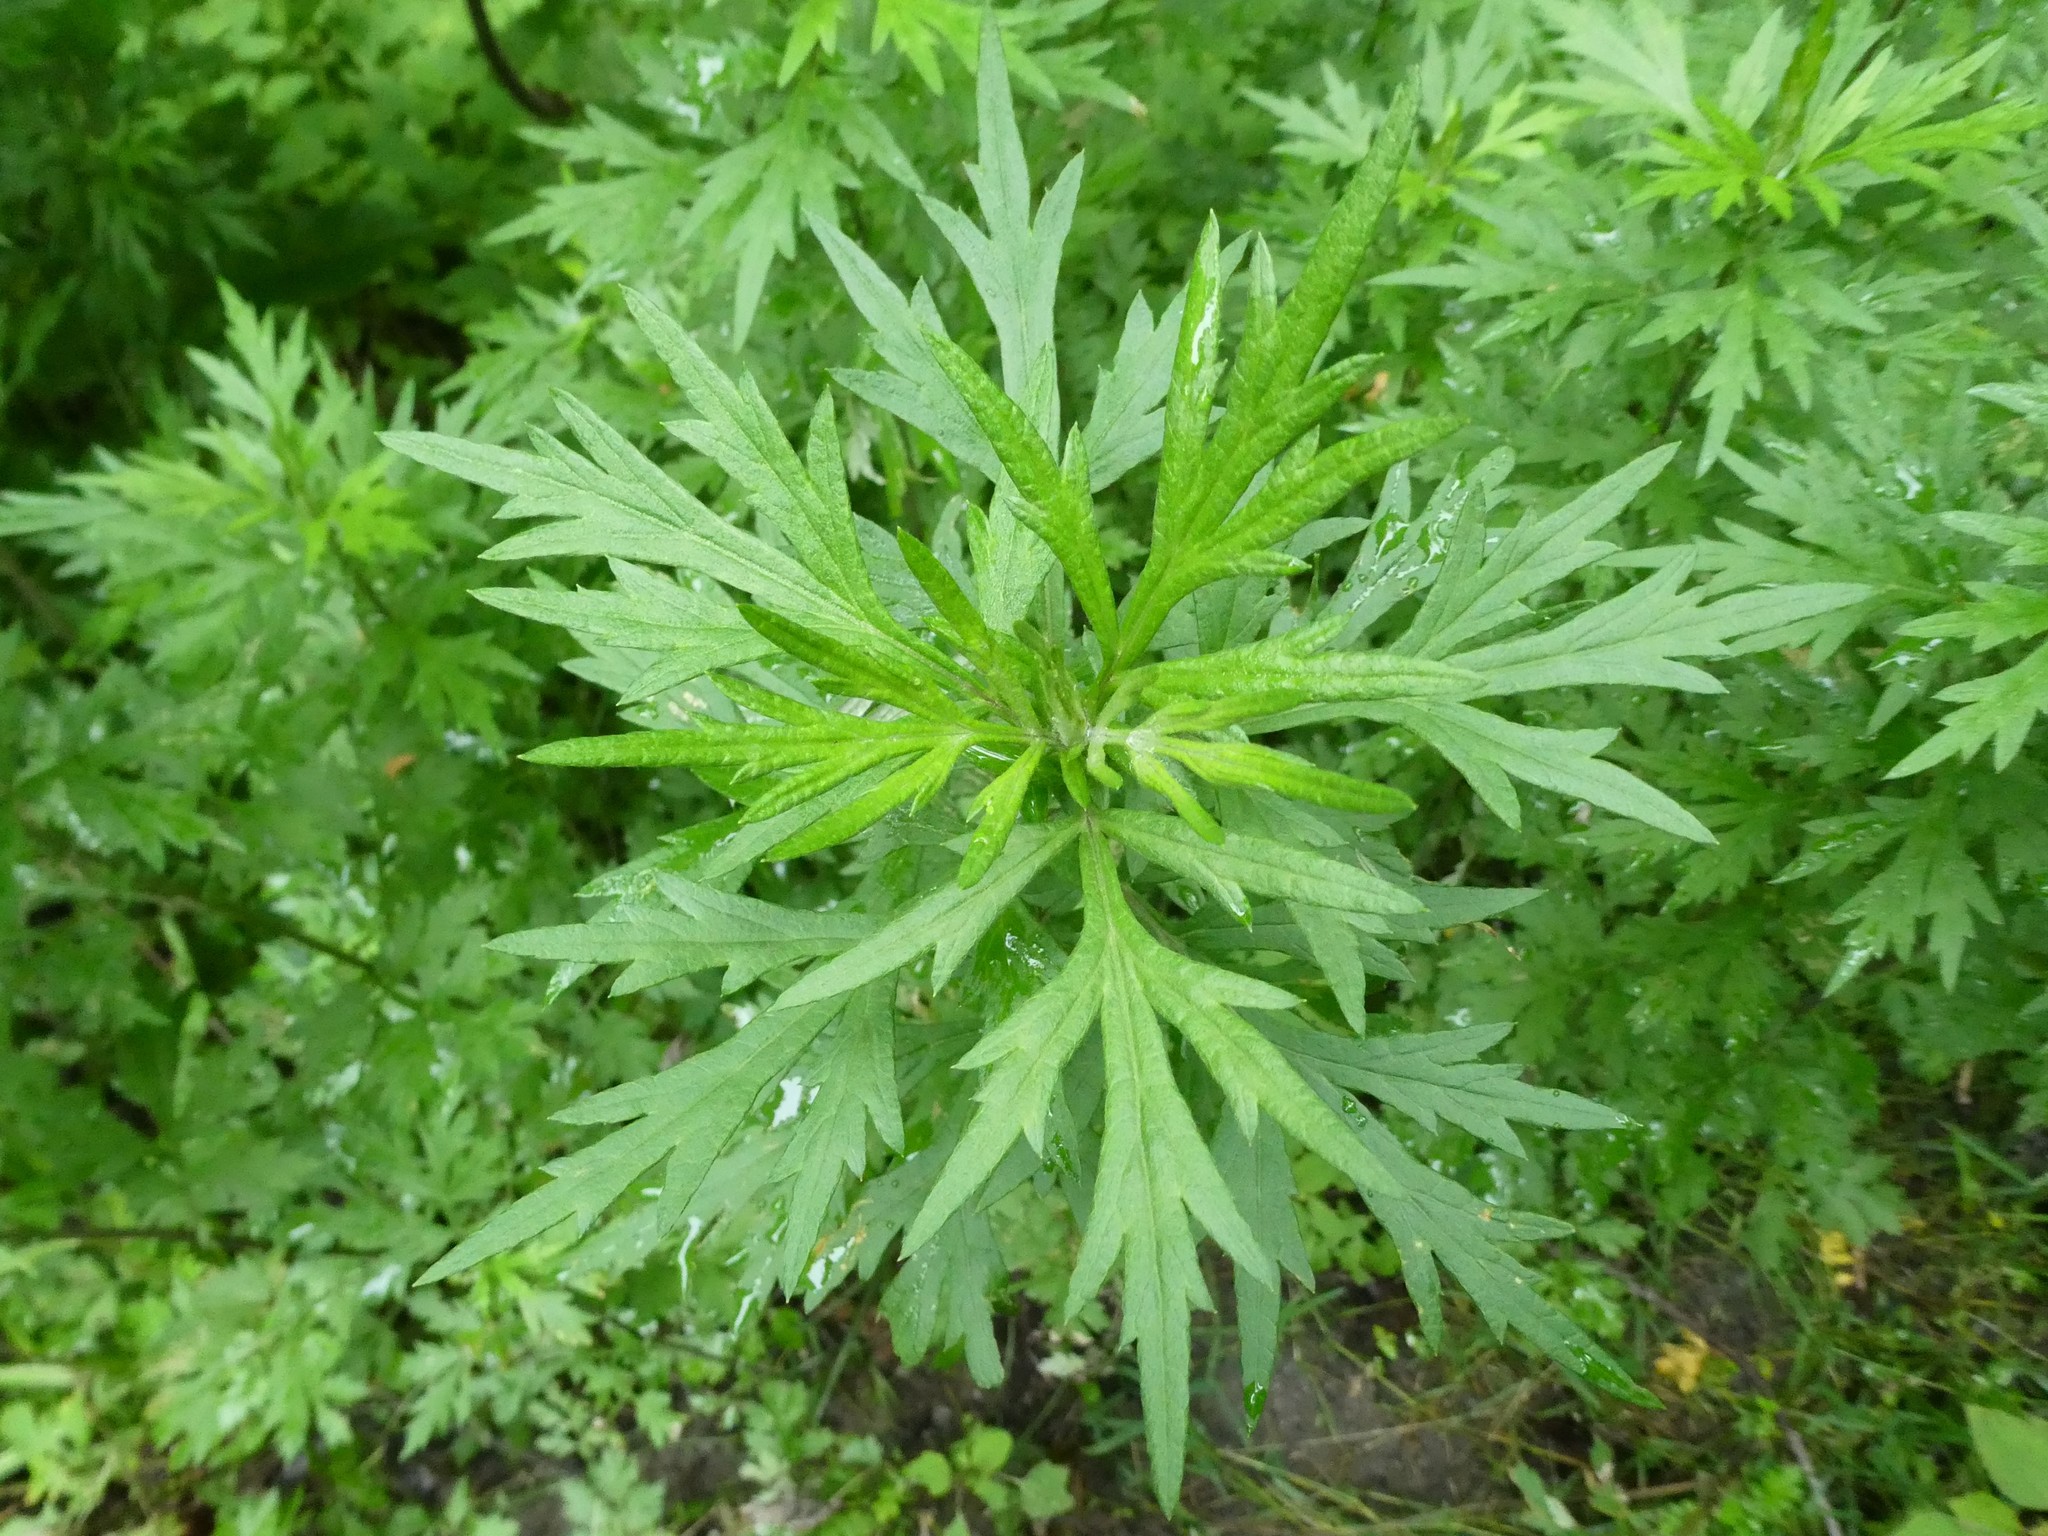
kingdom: Plantae
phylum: Tracheophyta
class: Magnoliopsida
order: Asterales
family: Asteraceae
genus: Artemisia
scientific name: Artemisia vulgaris
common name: Mugwort
